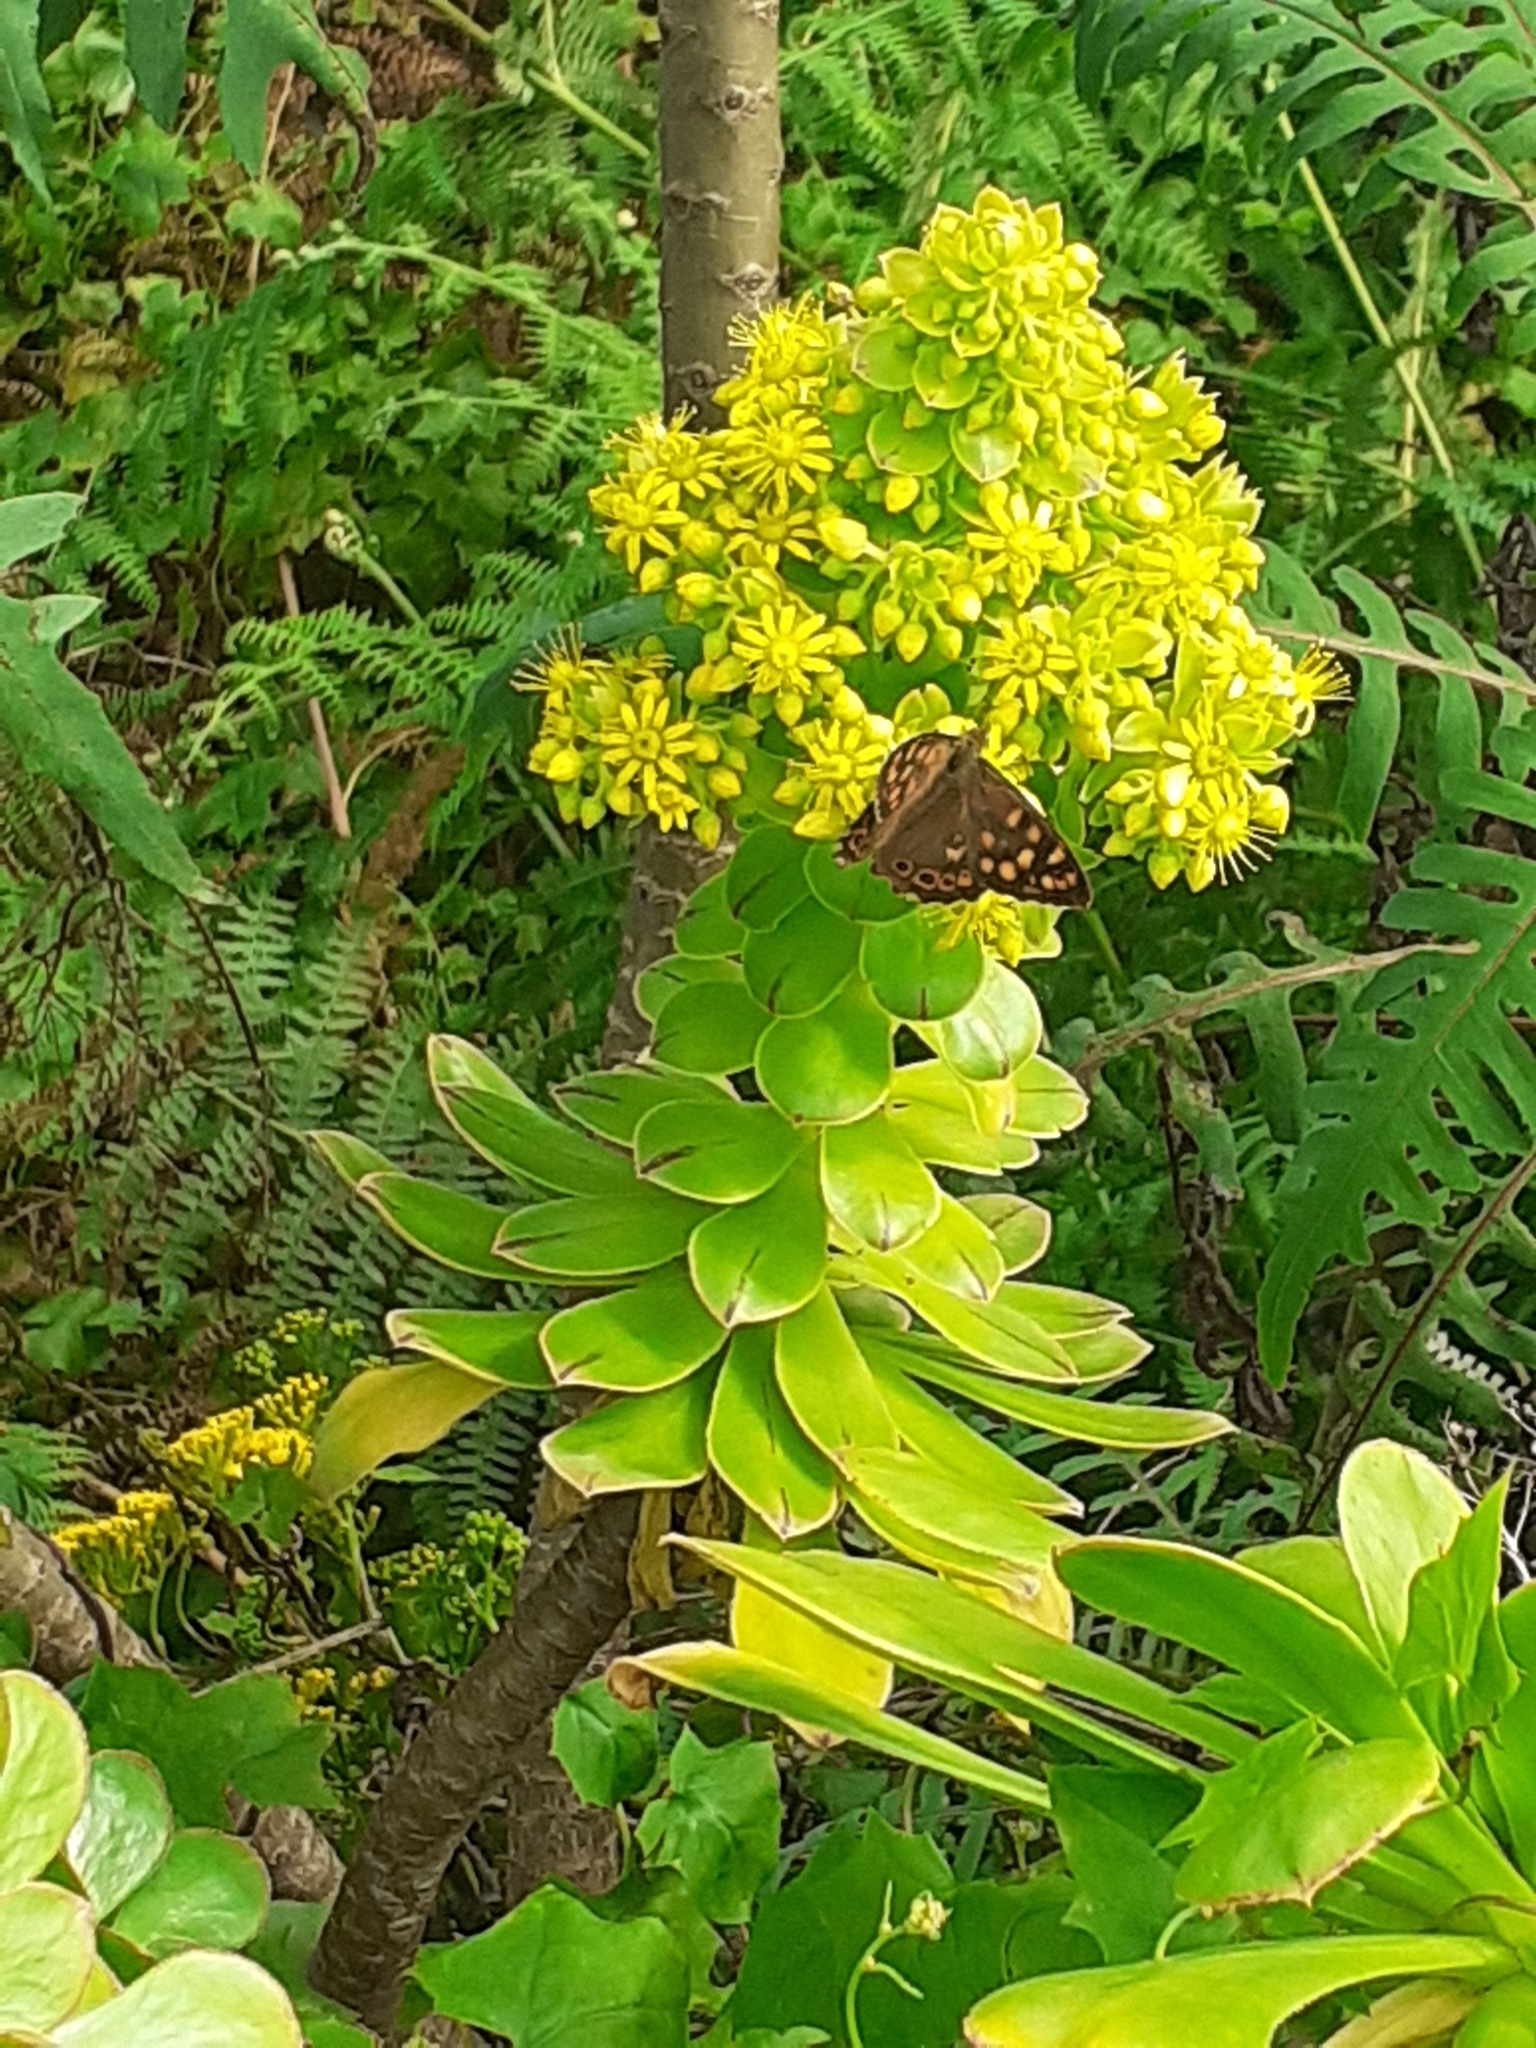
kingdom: Animalia
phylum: Arthropoda
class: Insecta
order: Lepidoptera
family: Nymphalidae
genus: Pararge
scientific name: Pararge aegeria
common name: Speckled wood
